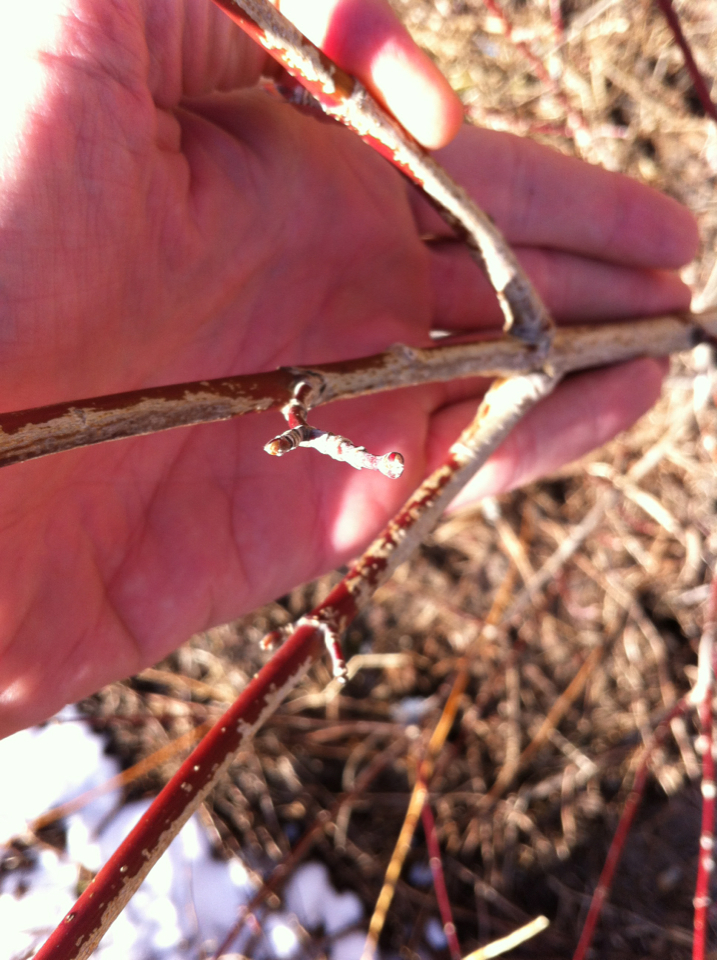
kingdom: Plantae
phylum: Tracheophyta
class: Magnoliopsida
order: Sapindales
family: Sapindaceae
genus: Acer
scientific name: Acer spicatum
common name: Mountain maple
